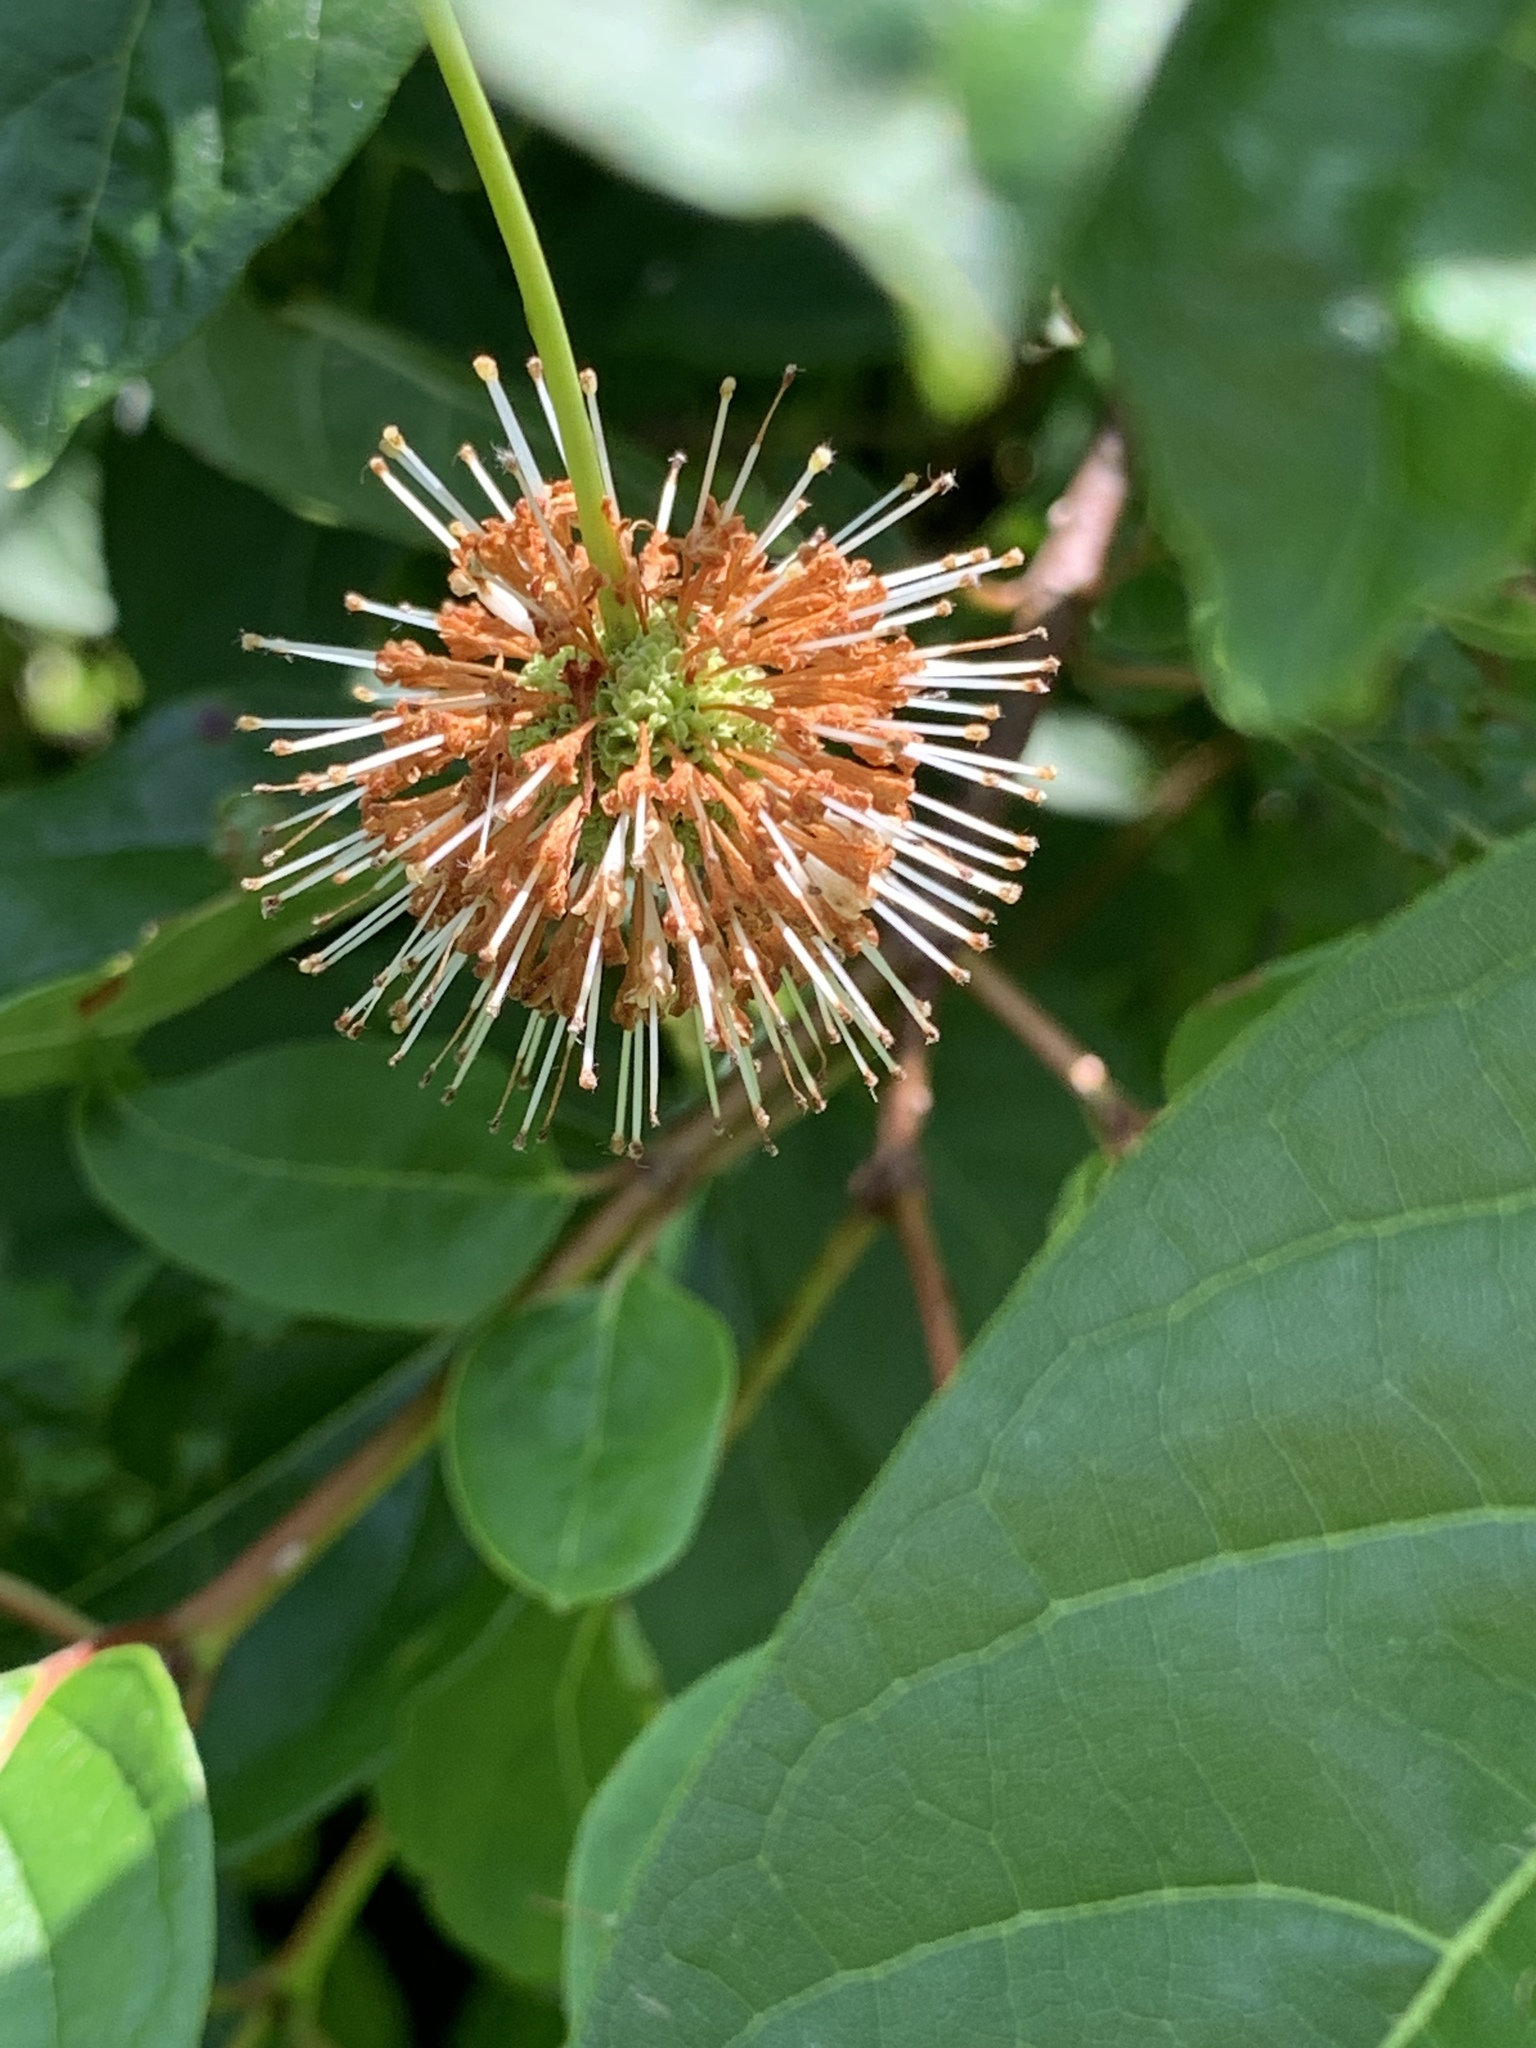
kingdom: Plantae
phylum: Tracheophyta
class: Magnoliopsida
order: Gentianales
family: Rubiaceae
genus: Cephalanthus
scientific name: Cephalanthus occidentalis
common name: Button-willow
